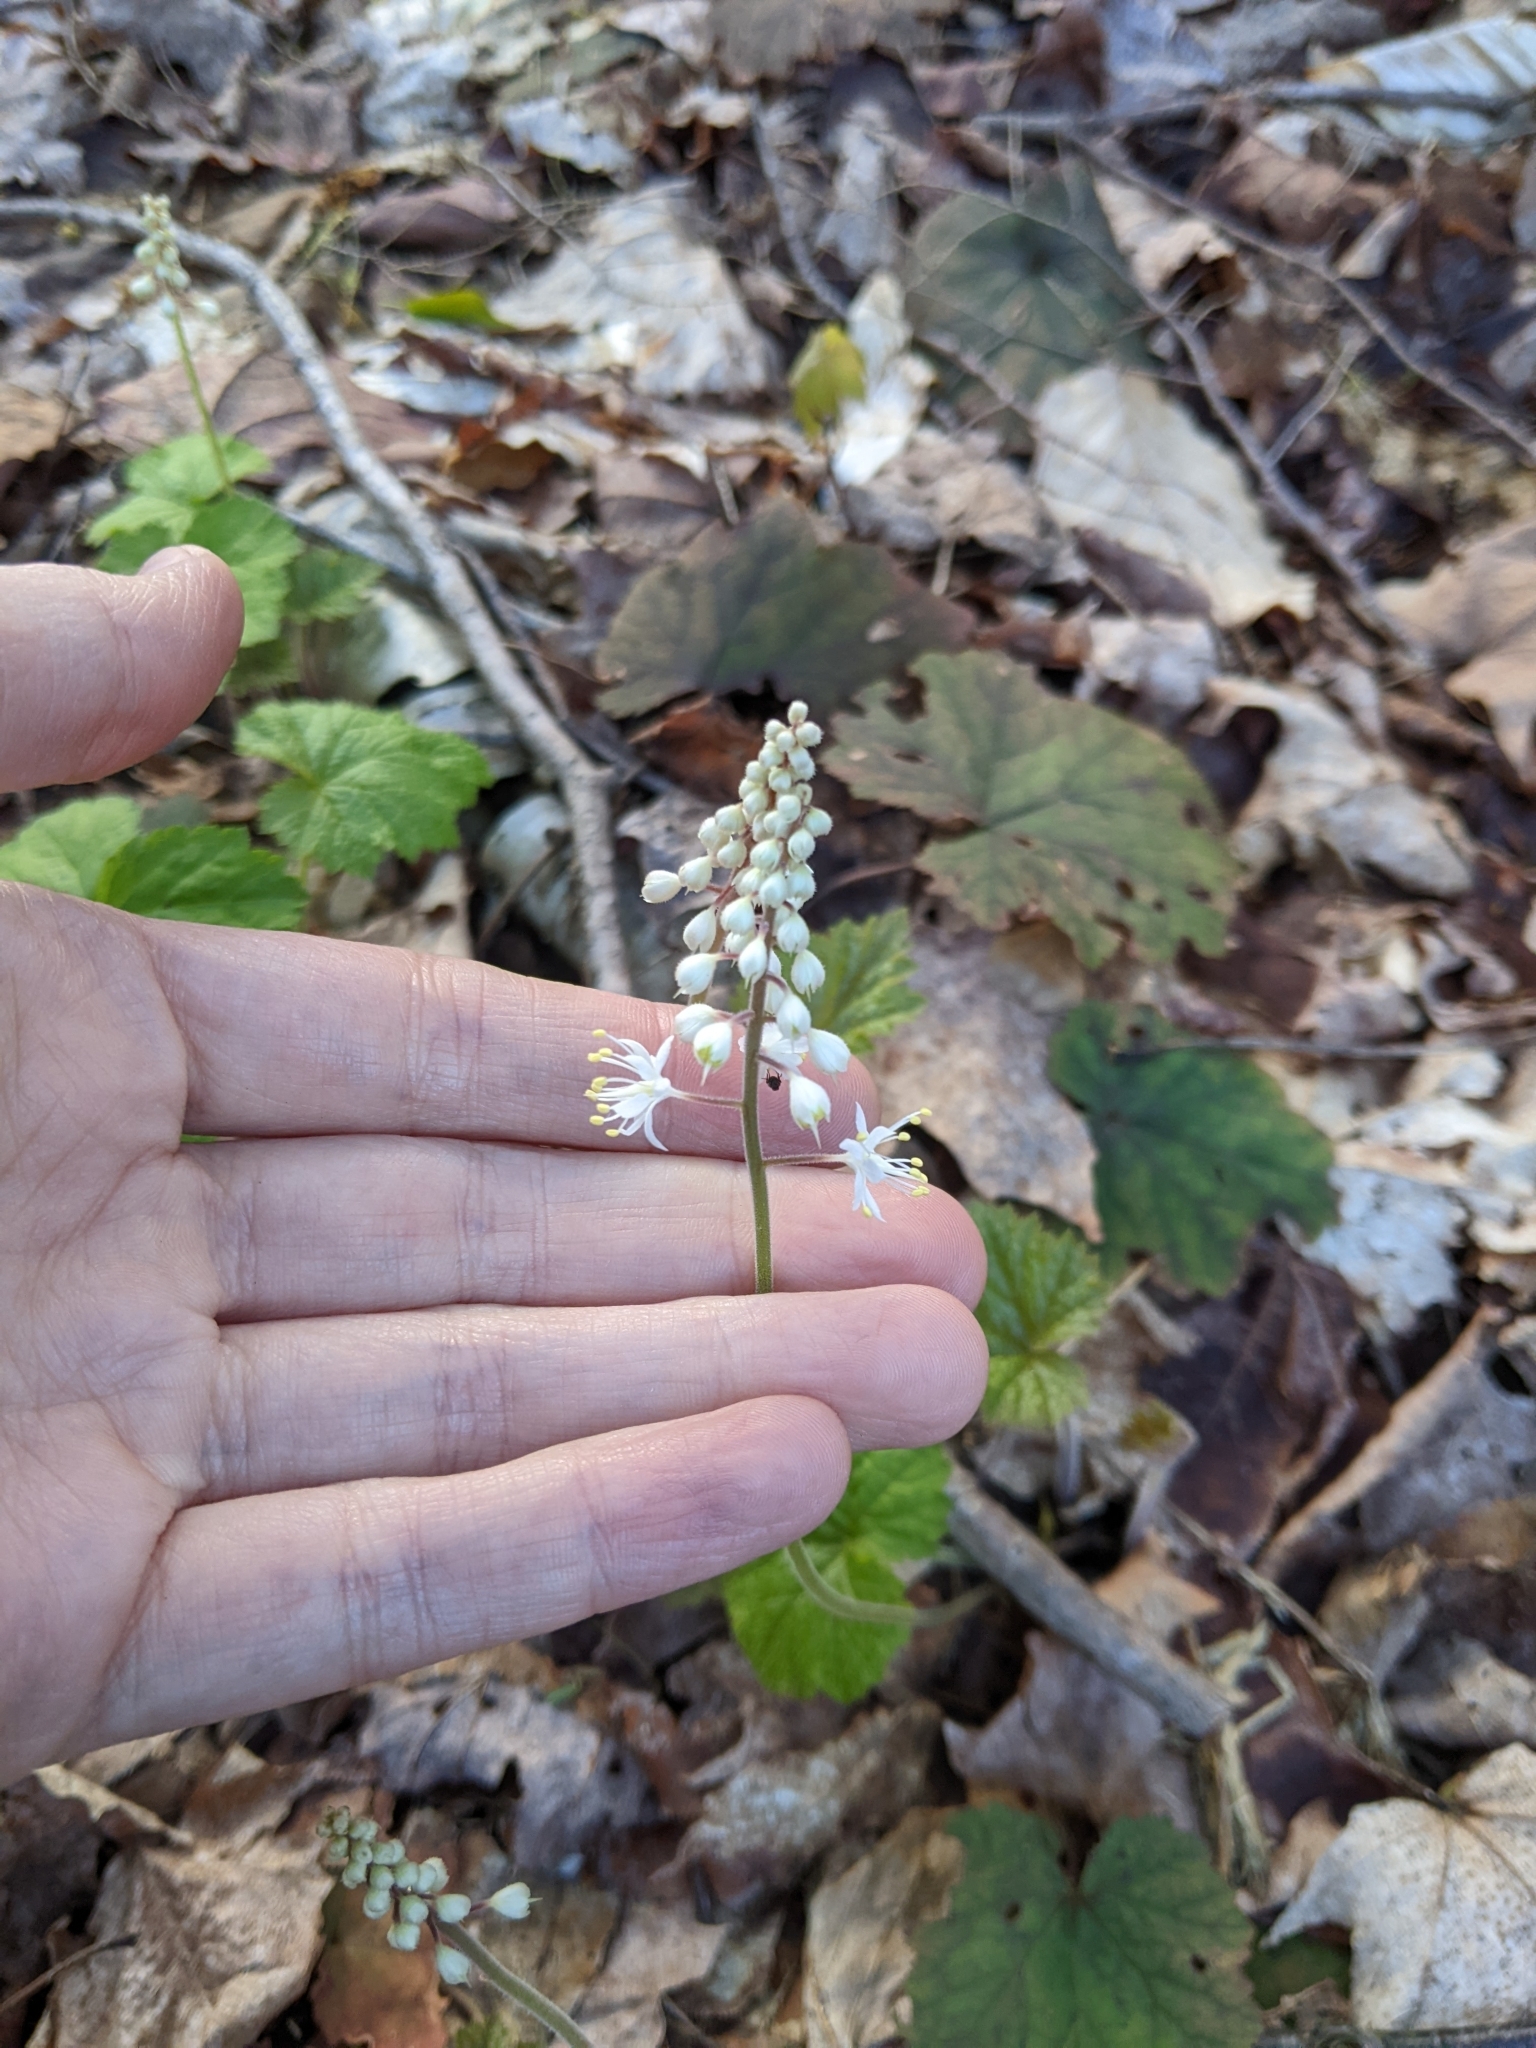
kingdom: Plantae
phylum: Tracheophyta
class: Magnoliopsida
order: Saxifragales
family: Saxifragaceae
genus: Tiarella
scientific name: Tiarella stolonifera
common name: Stoloniferous foamflower
